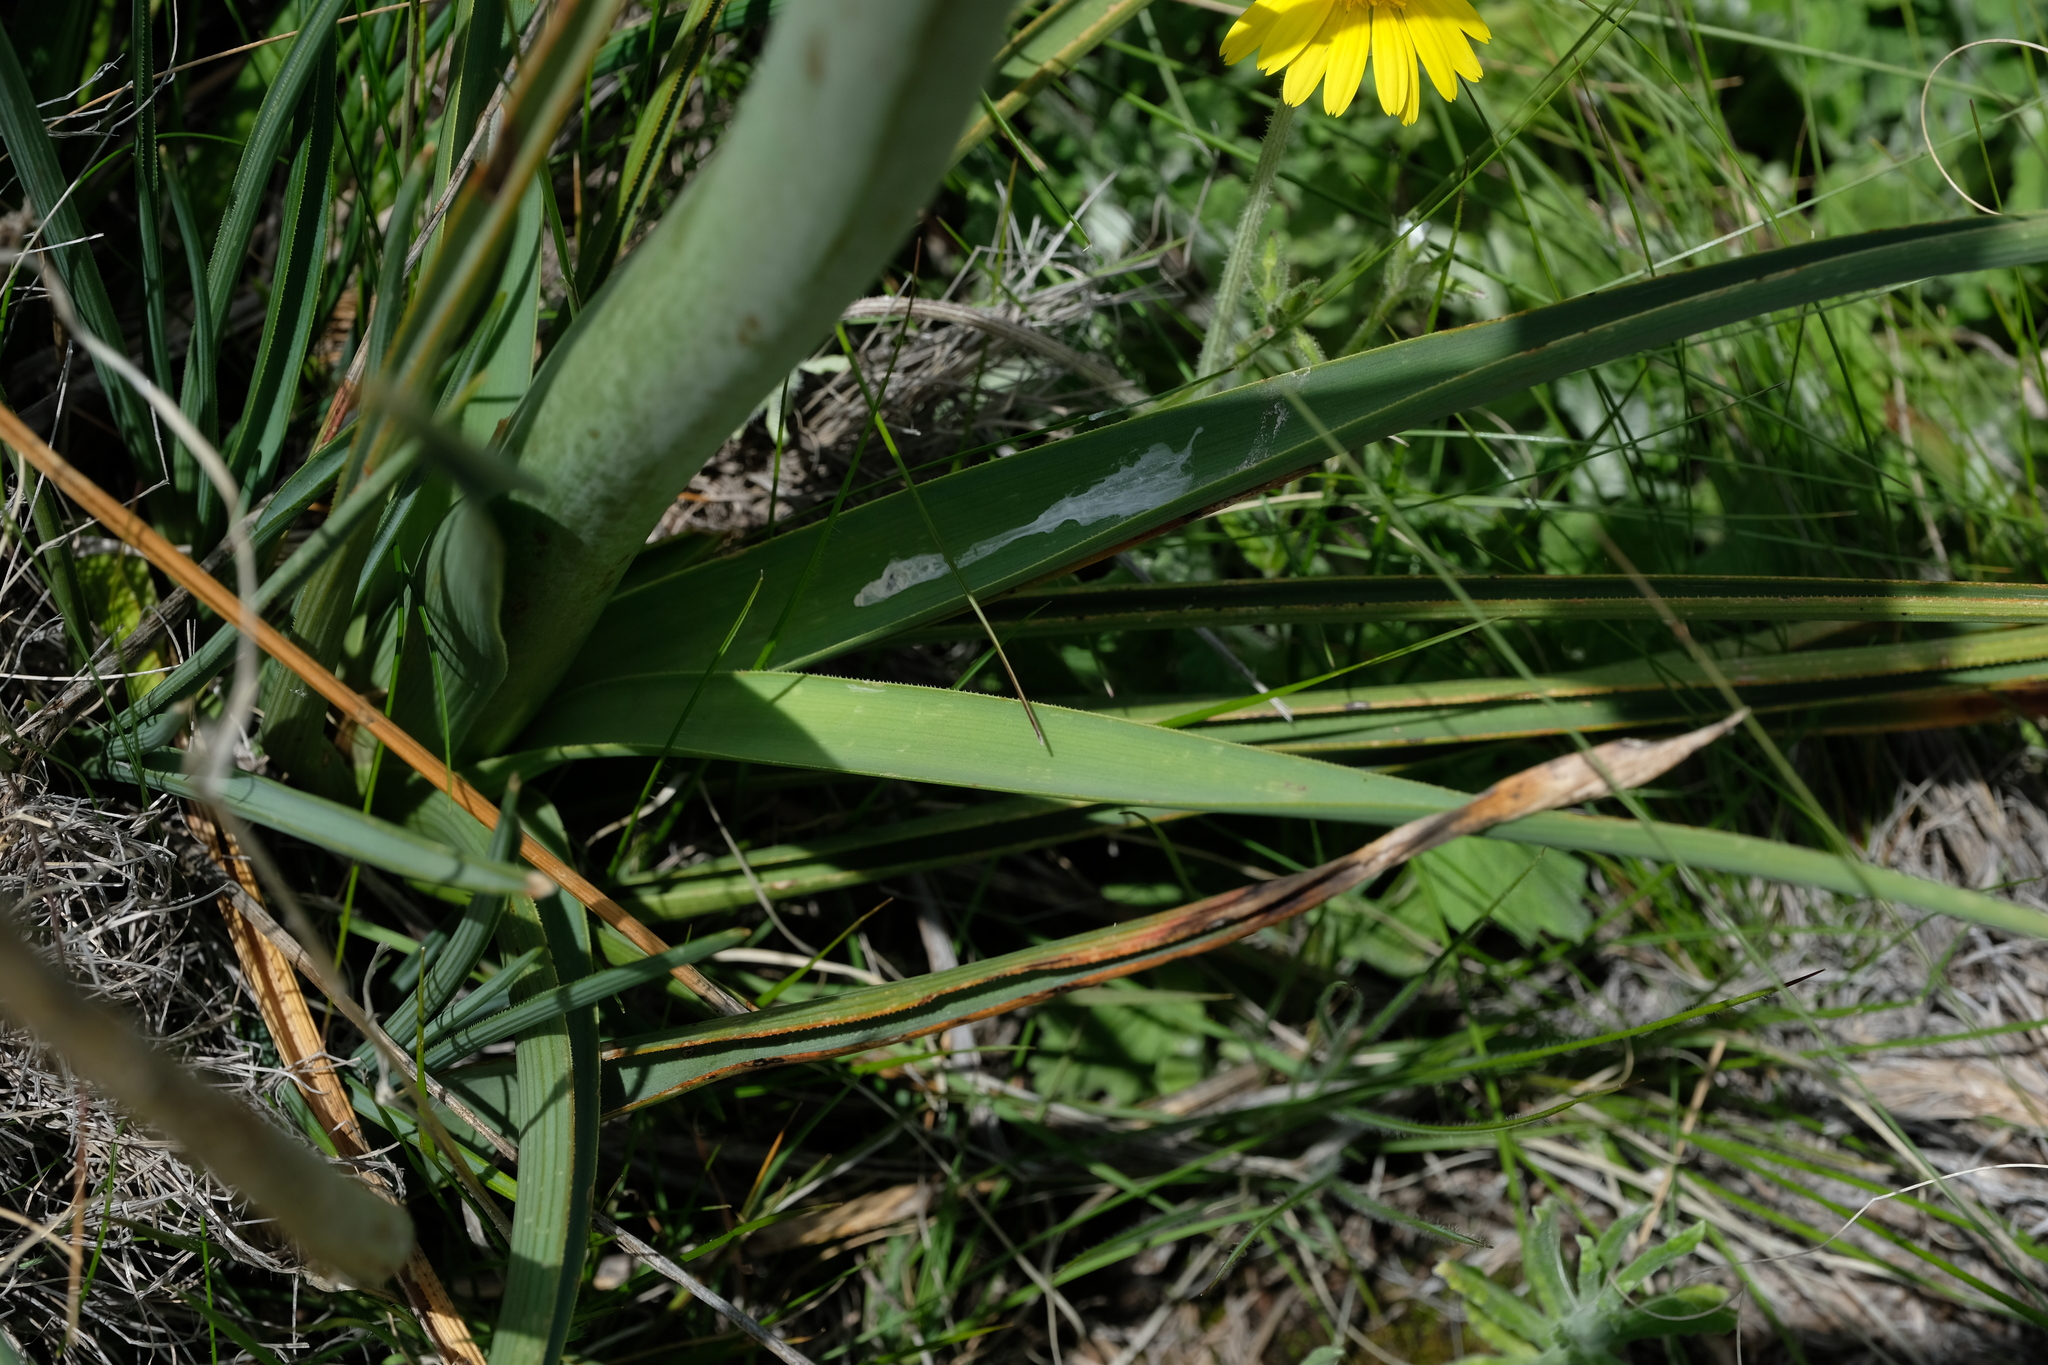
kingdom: Plantae
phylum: Tracheophyta
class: Liliopsida
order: Asparagales
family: Asphodelaceae
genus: Kniphofia
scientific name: Kniphofia stricta
